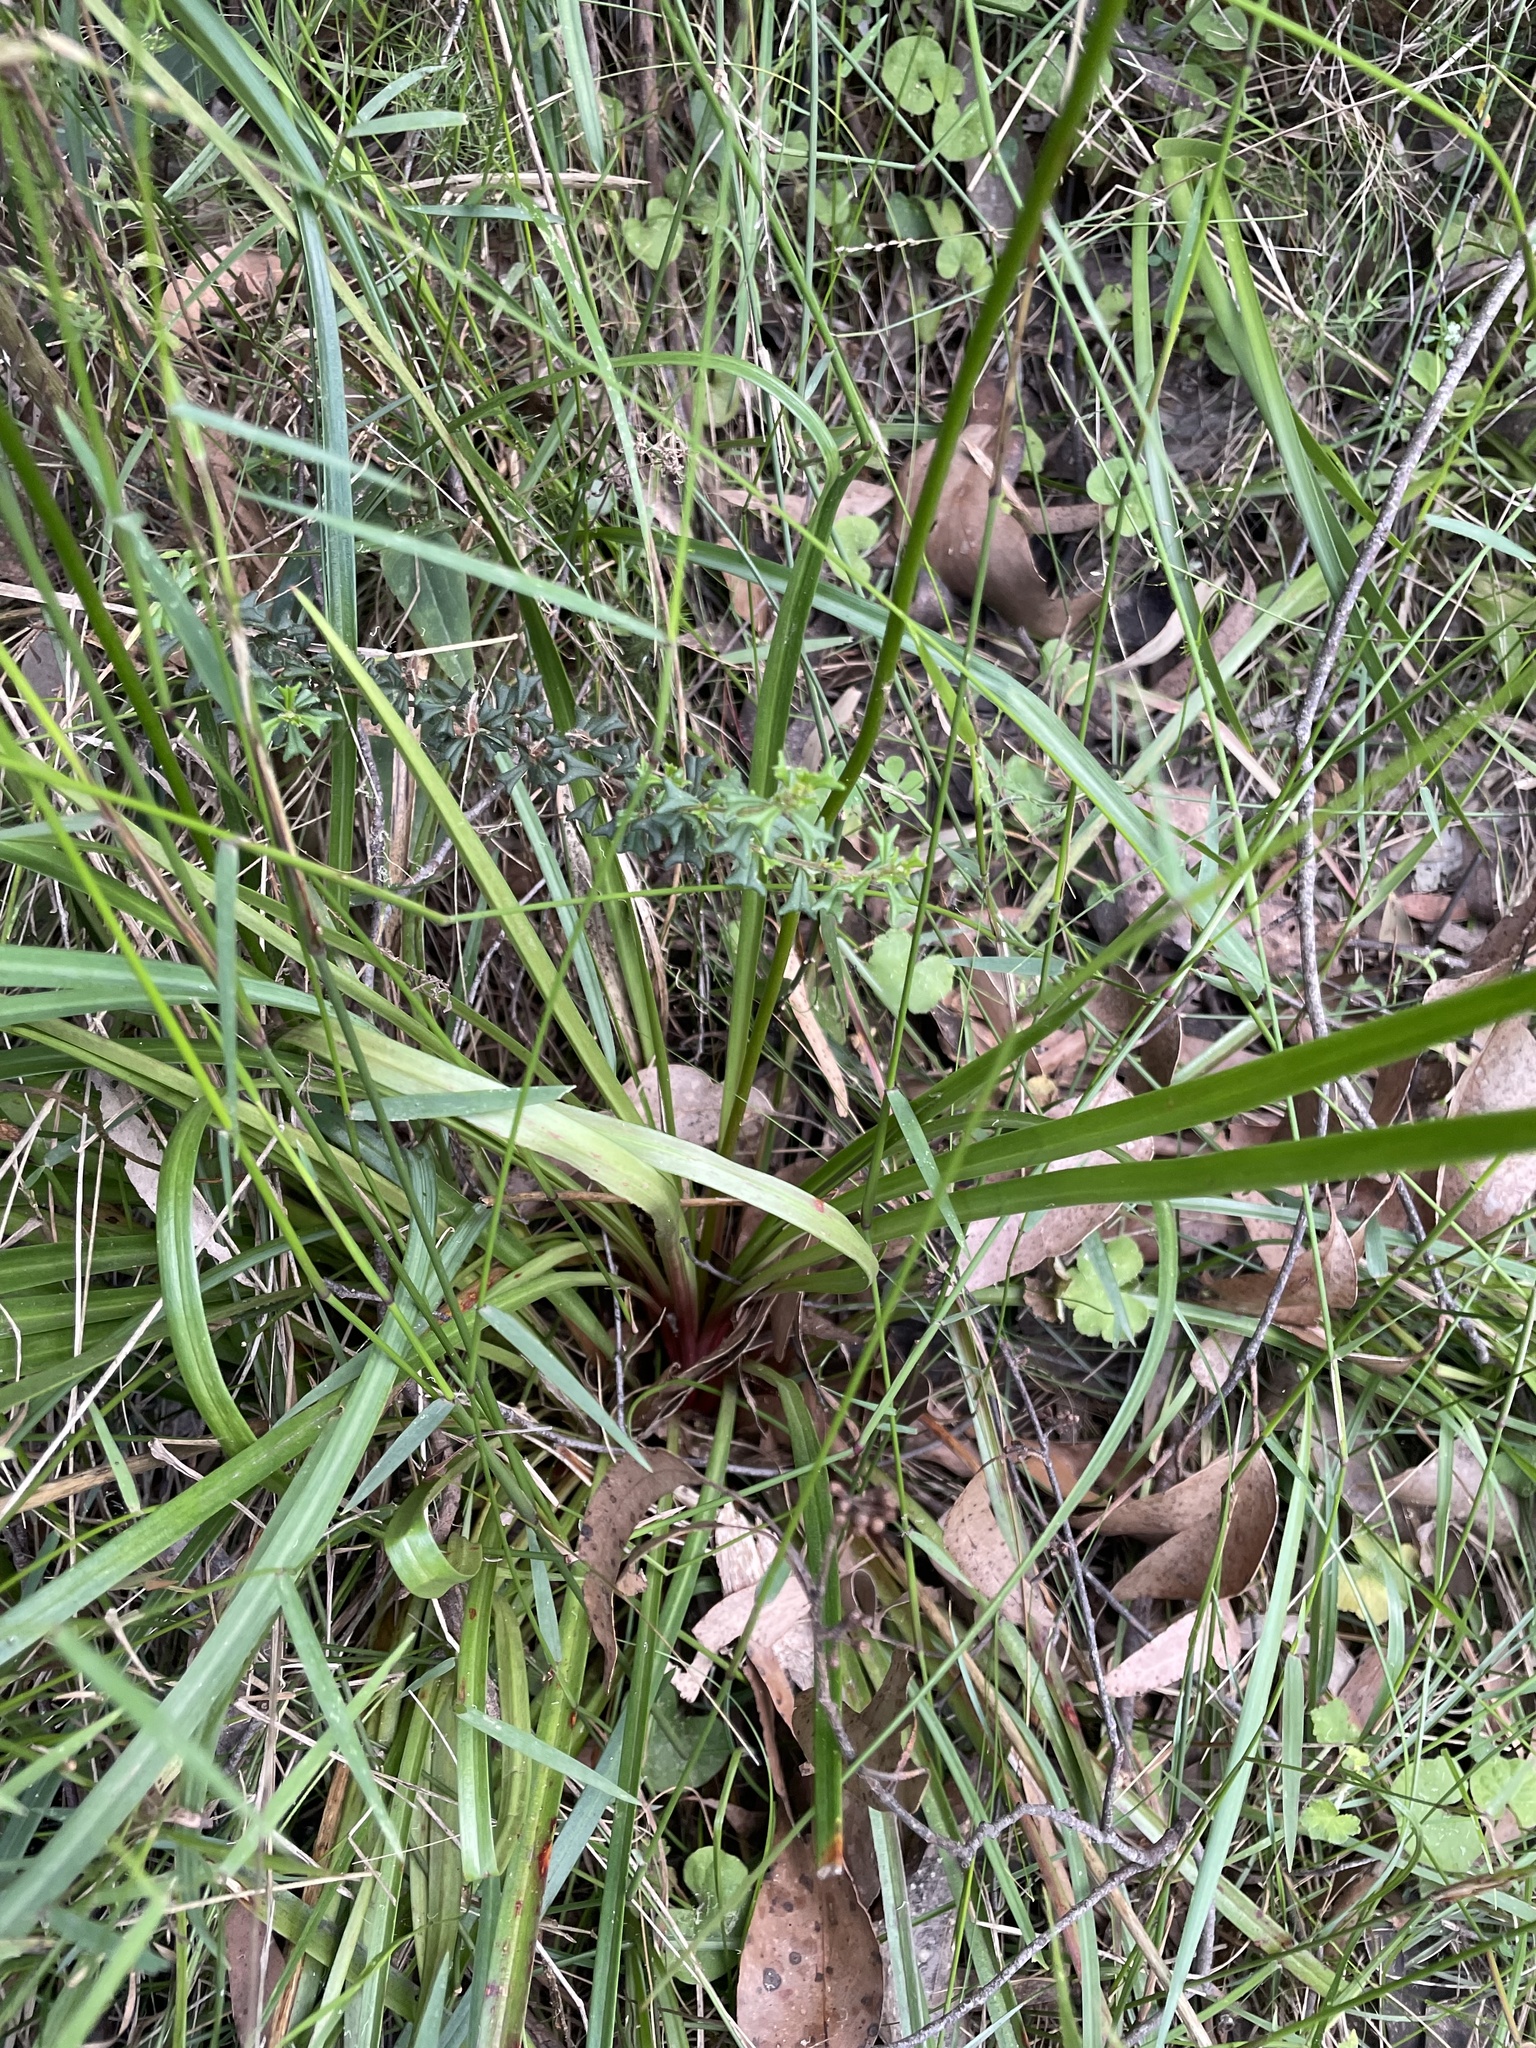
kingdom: Plantae
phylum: Tracheophyta
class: Magnoliopsida
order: Asterales
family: Stylidiaceae
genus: Stylidium
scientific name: Stylidium armeria
